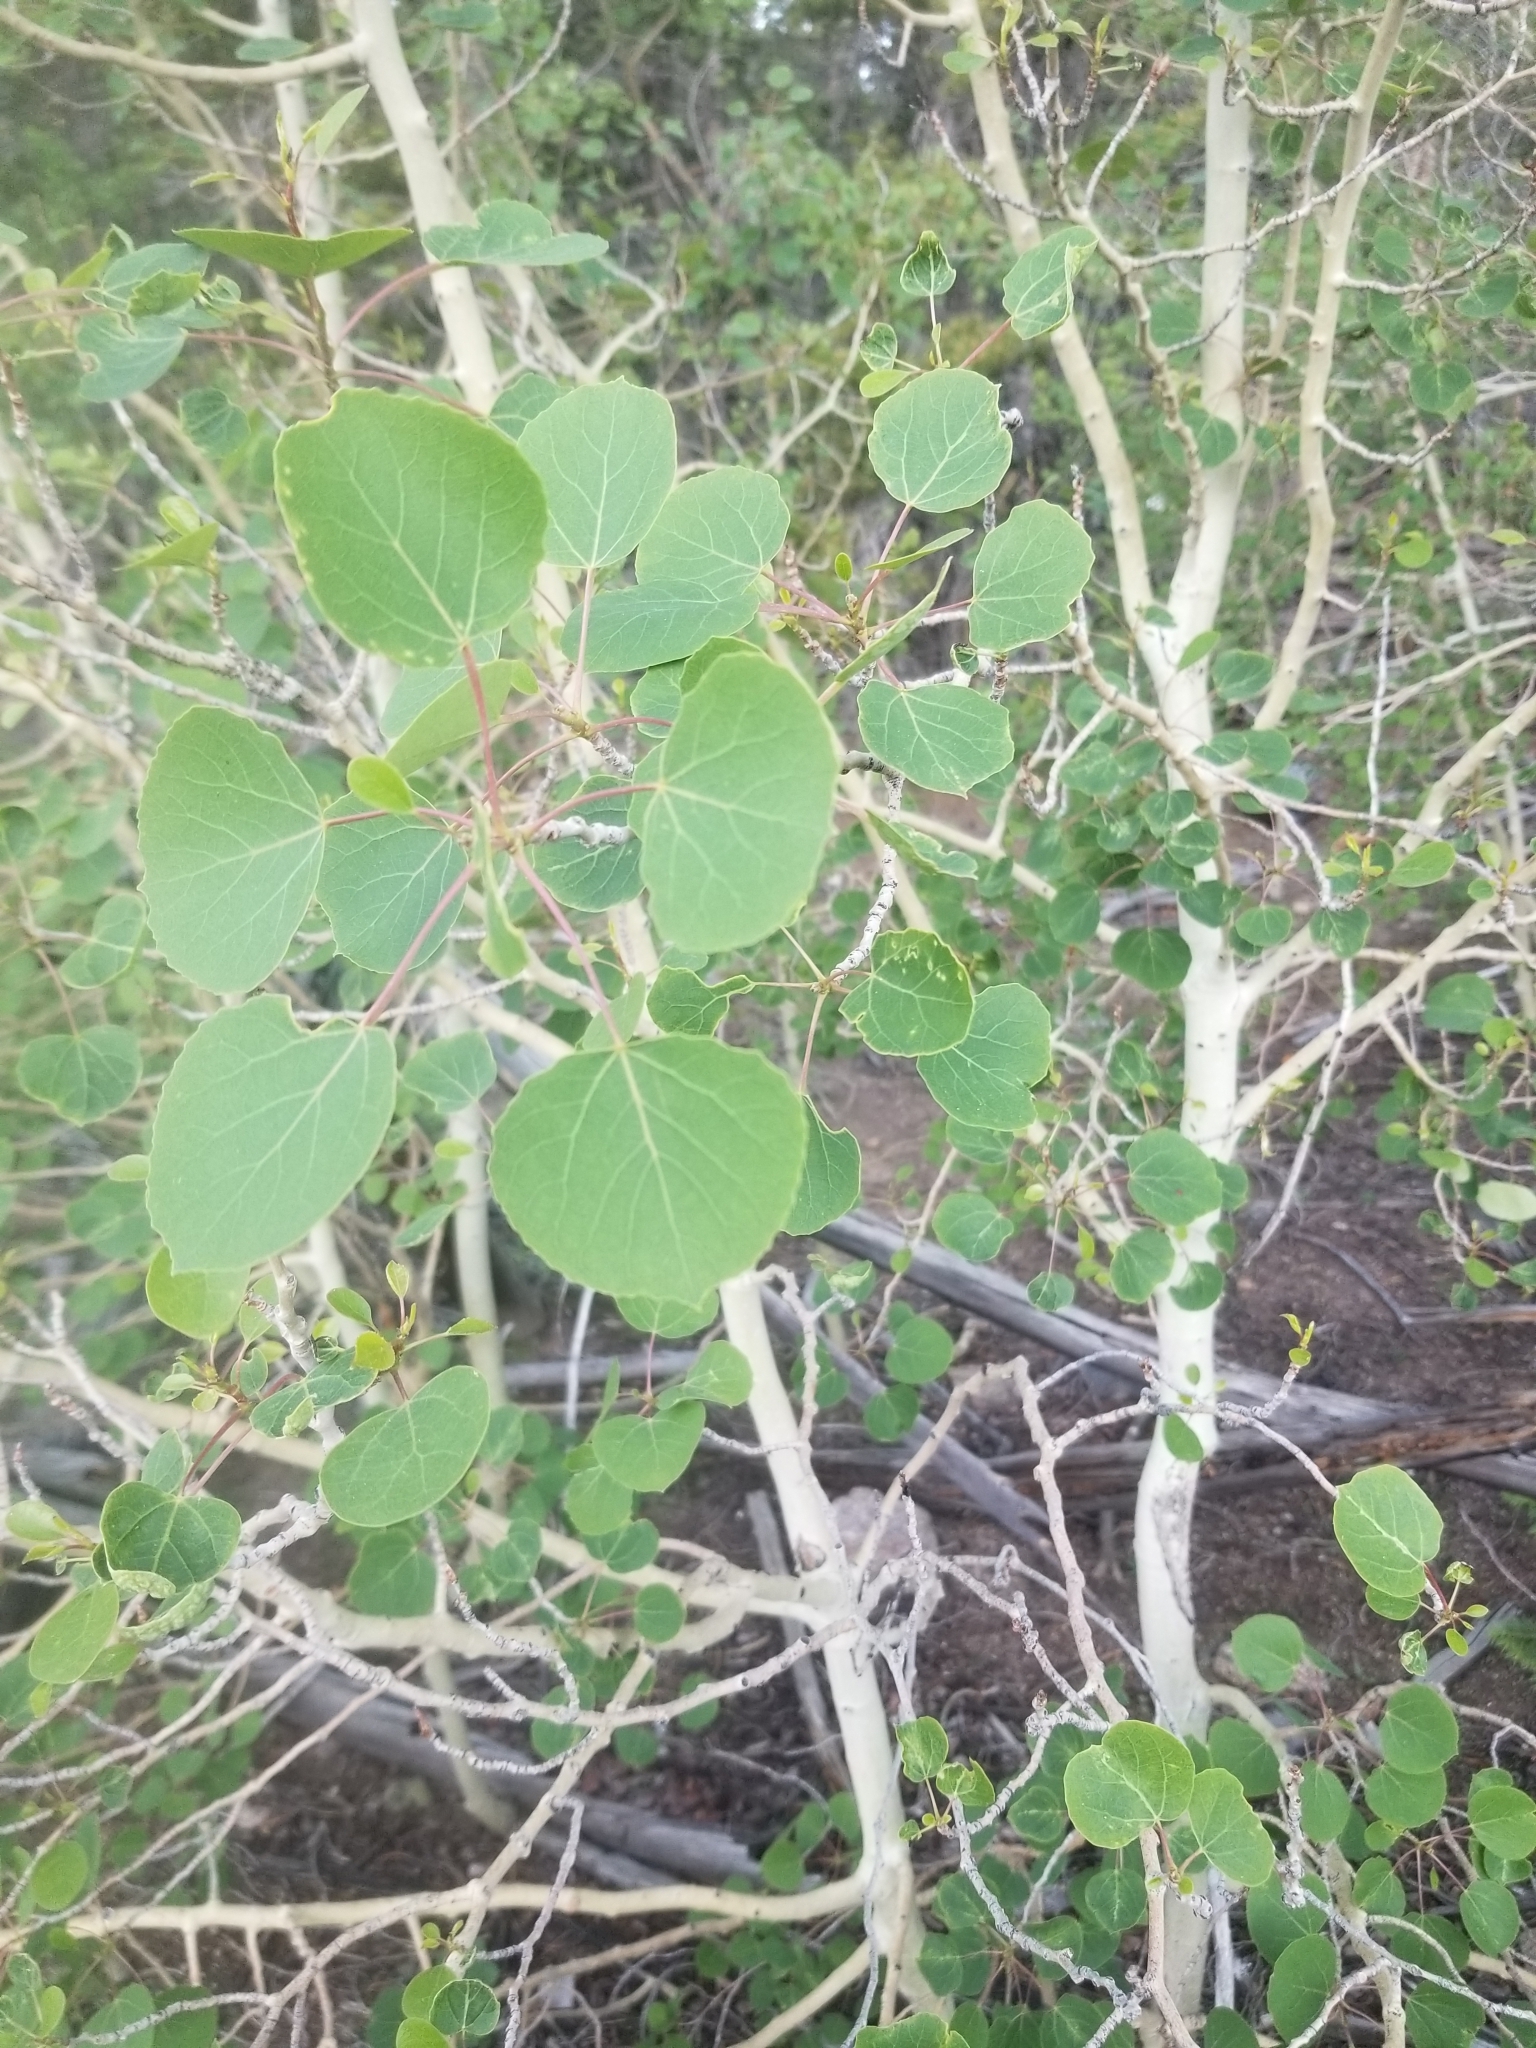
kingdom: Plantae
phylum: Tracheophyta
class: Magnoliopsida
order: Malpighiales
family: Salicaceae
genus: Populus
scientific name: Populus tremuloides
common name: Quaking aspen
